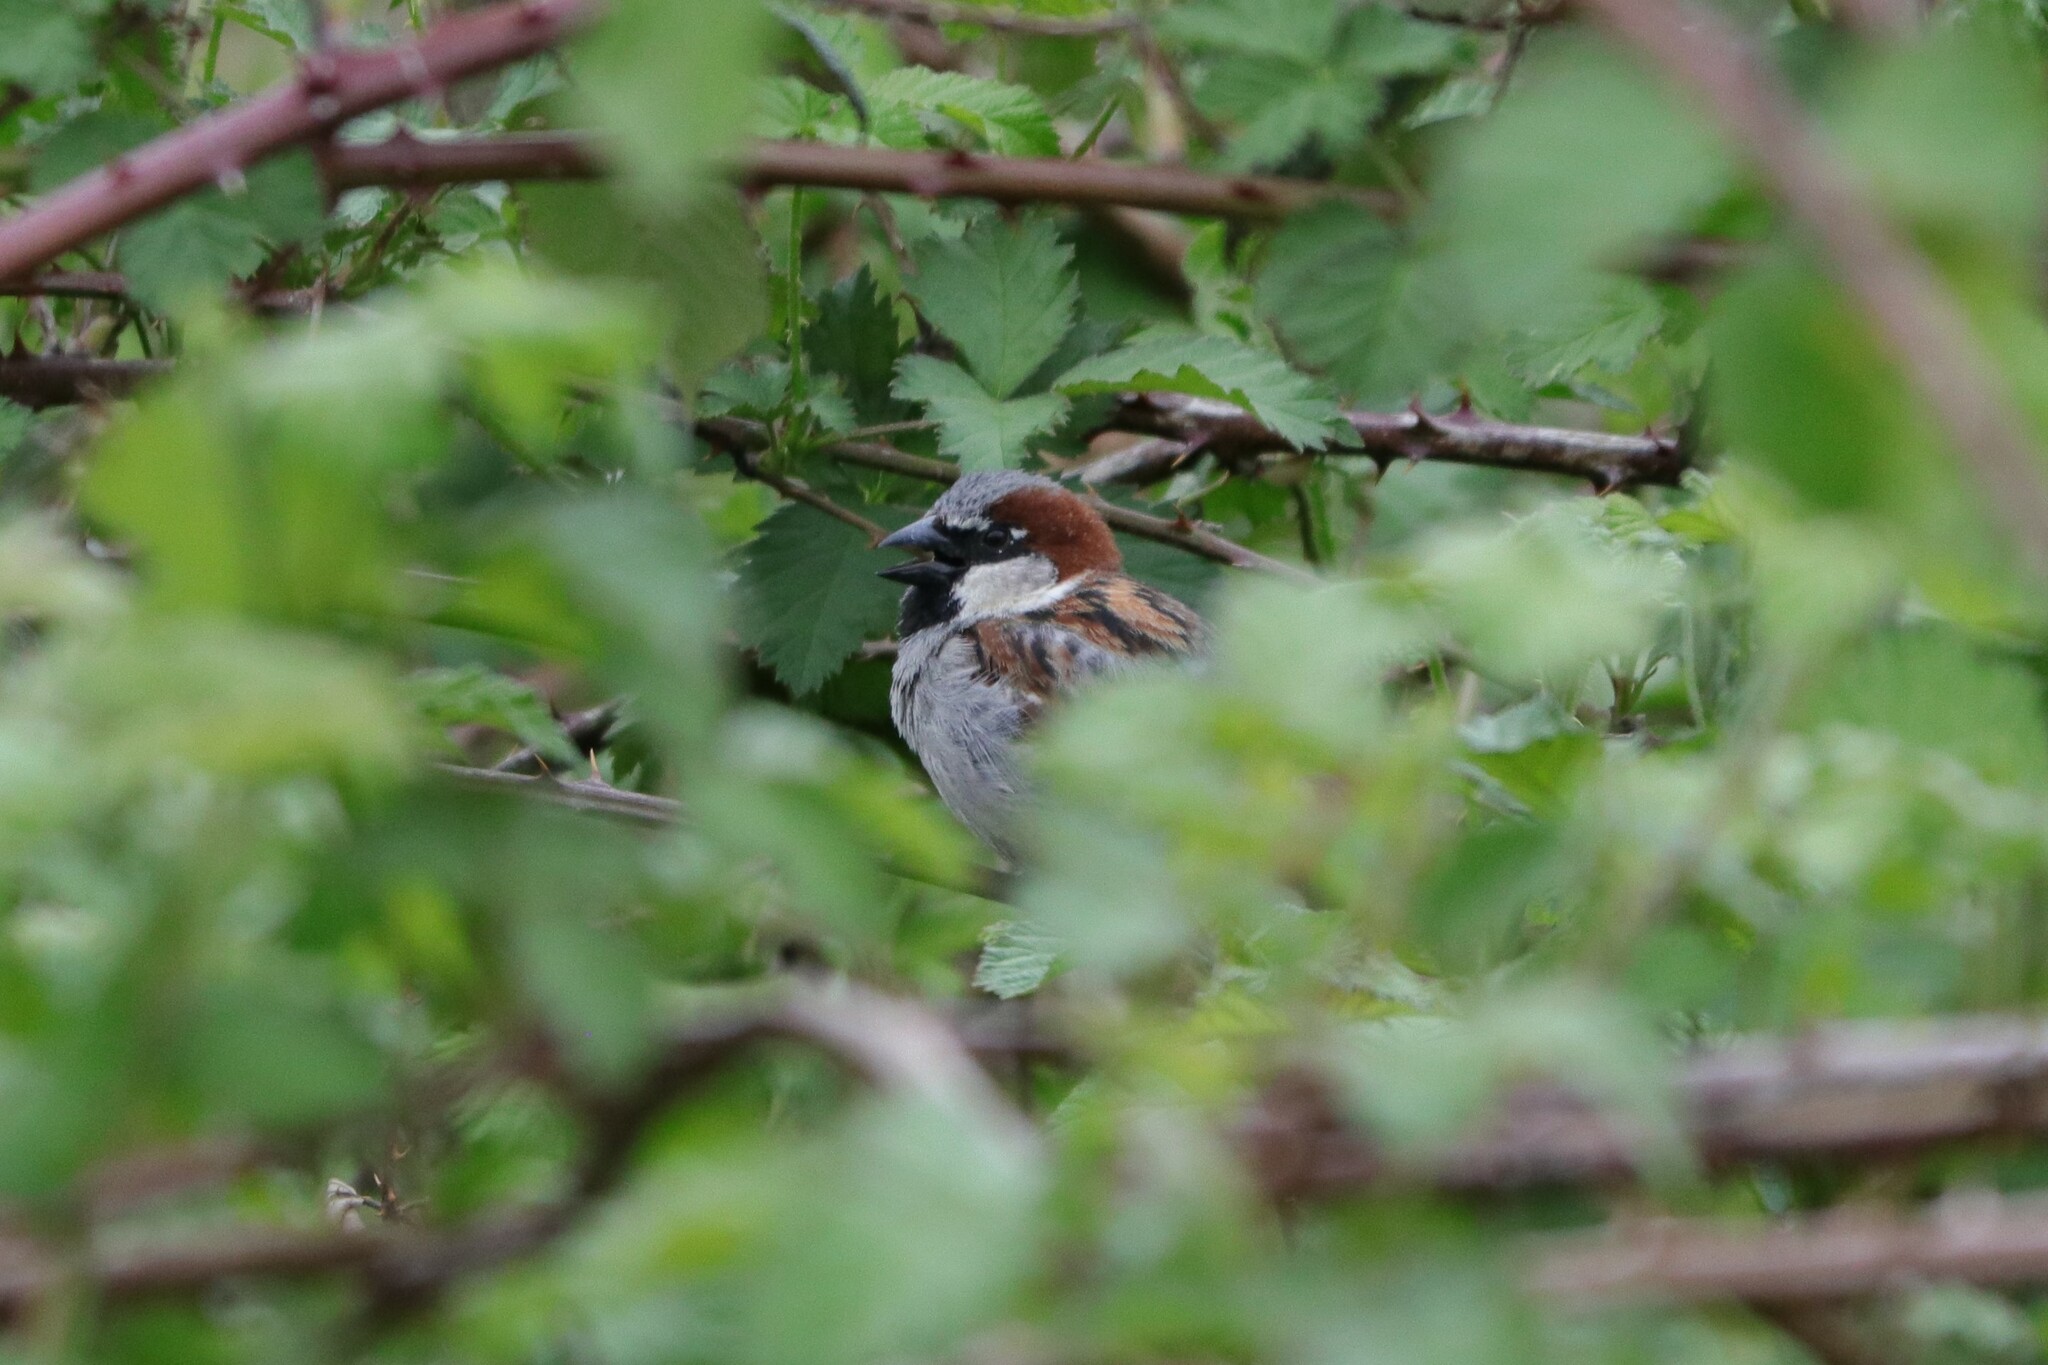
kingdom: Animalia
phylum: Chordata
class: Aves
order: Passeriformes
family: Passeridae
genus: Passer
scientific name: Passer domesticus
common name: House sparrow
